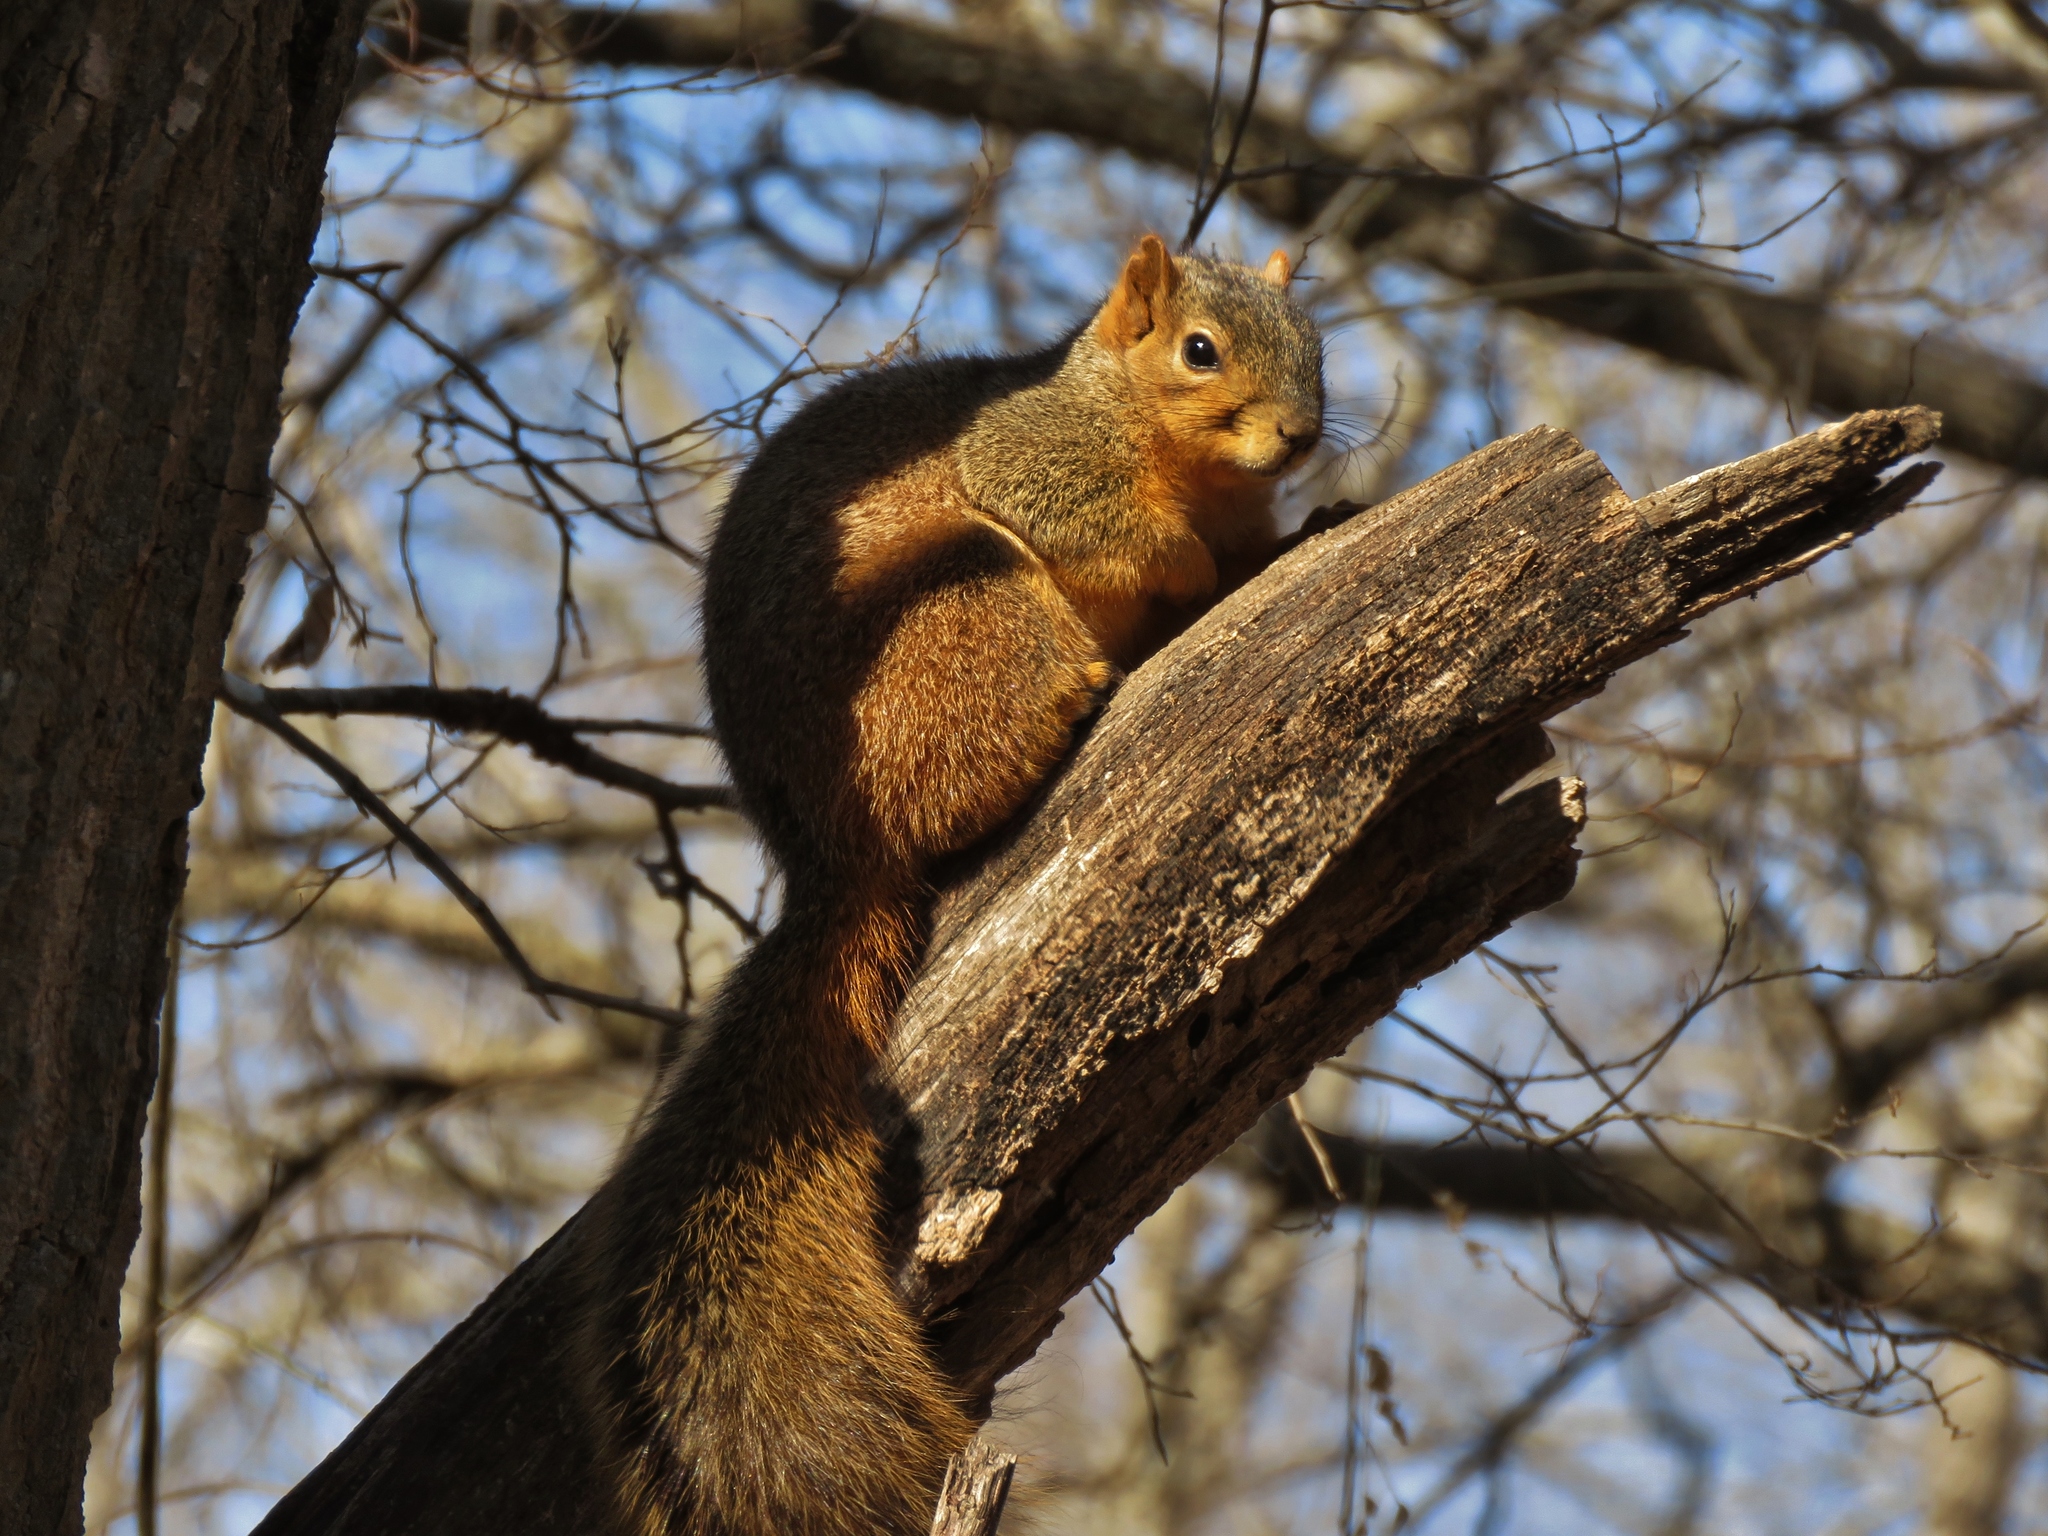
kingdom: Animalia
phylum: Chordata
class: Mammalia
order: Rodentia
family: Sciuridae
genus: Sciurus
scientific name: Sciurus niger
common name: Fox squirrel
